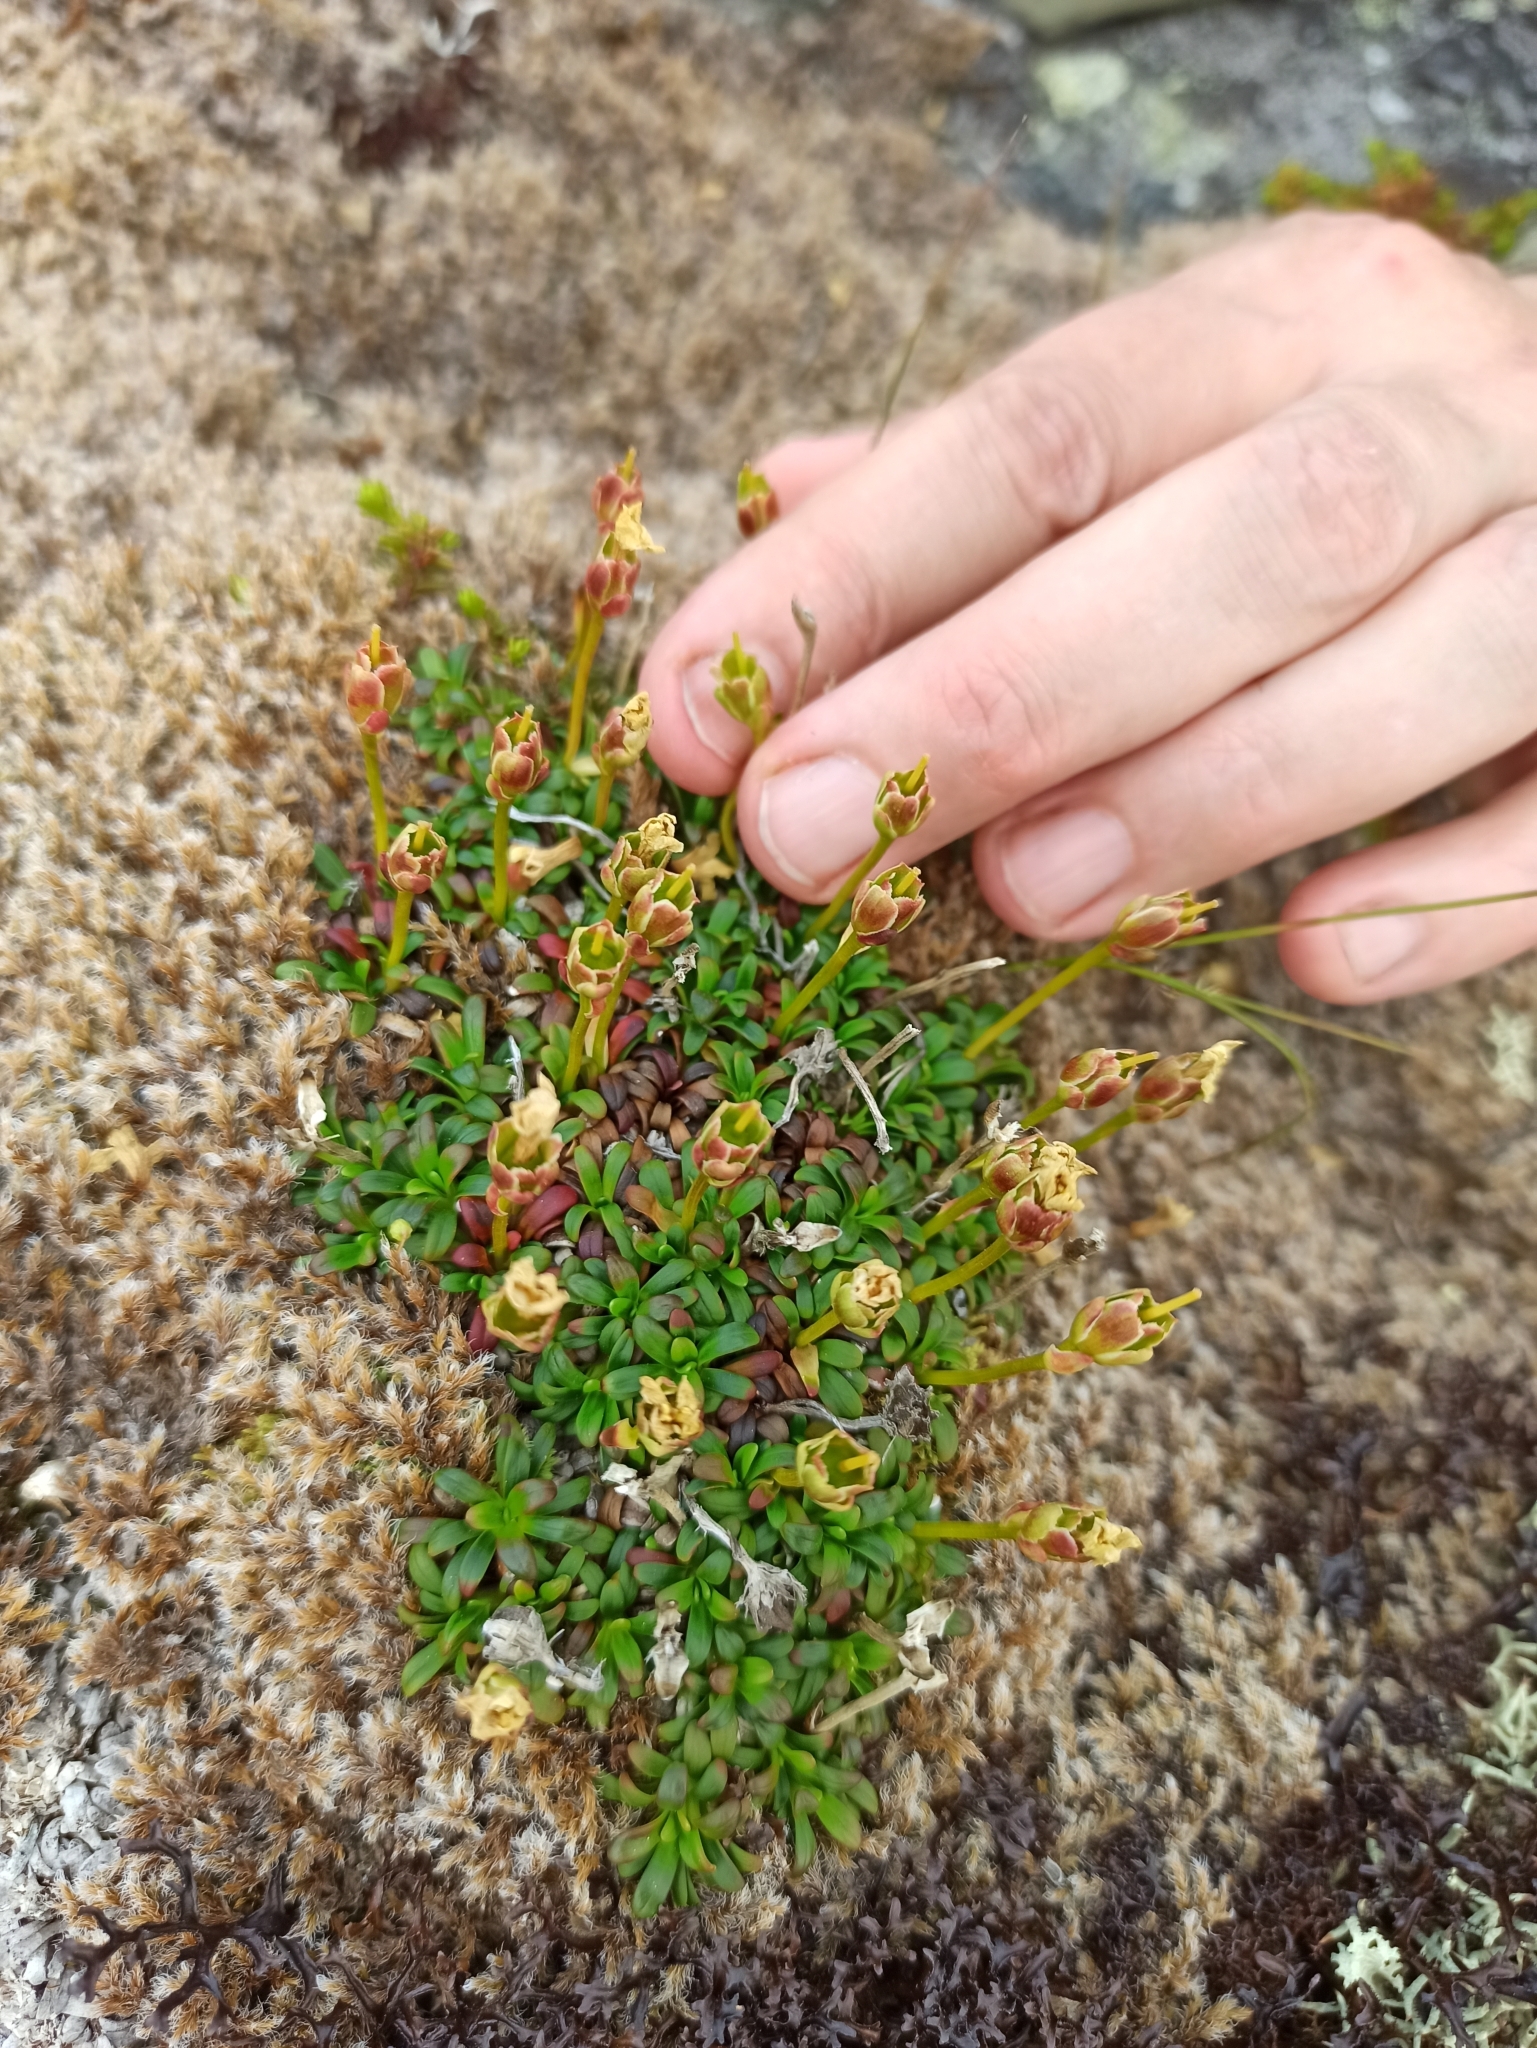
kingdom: Plantae
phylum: Tracheophyta
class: Magnoliopsida
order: Ericales
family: Diapensiaceae
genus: Diapensia
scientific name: Diapensia lapponica
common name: Diapensia
